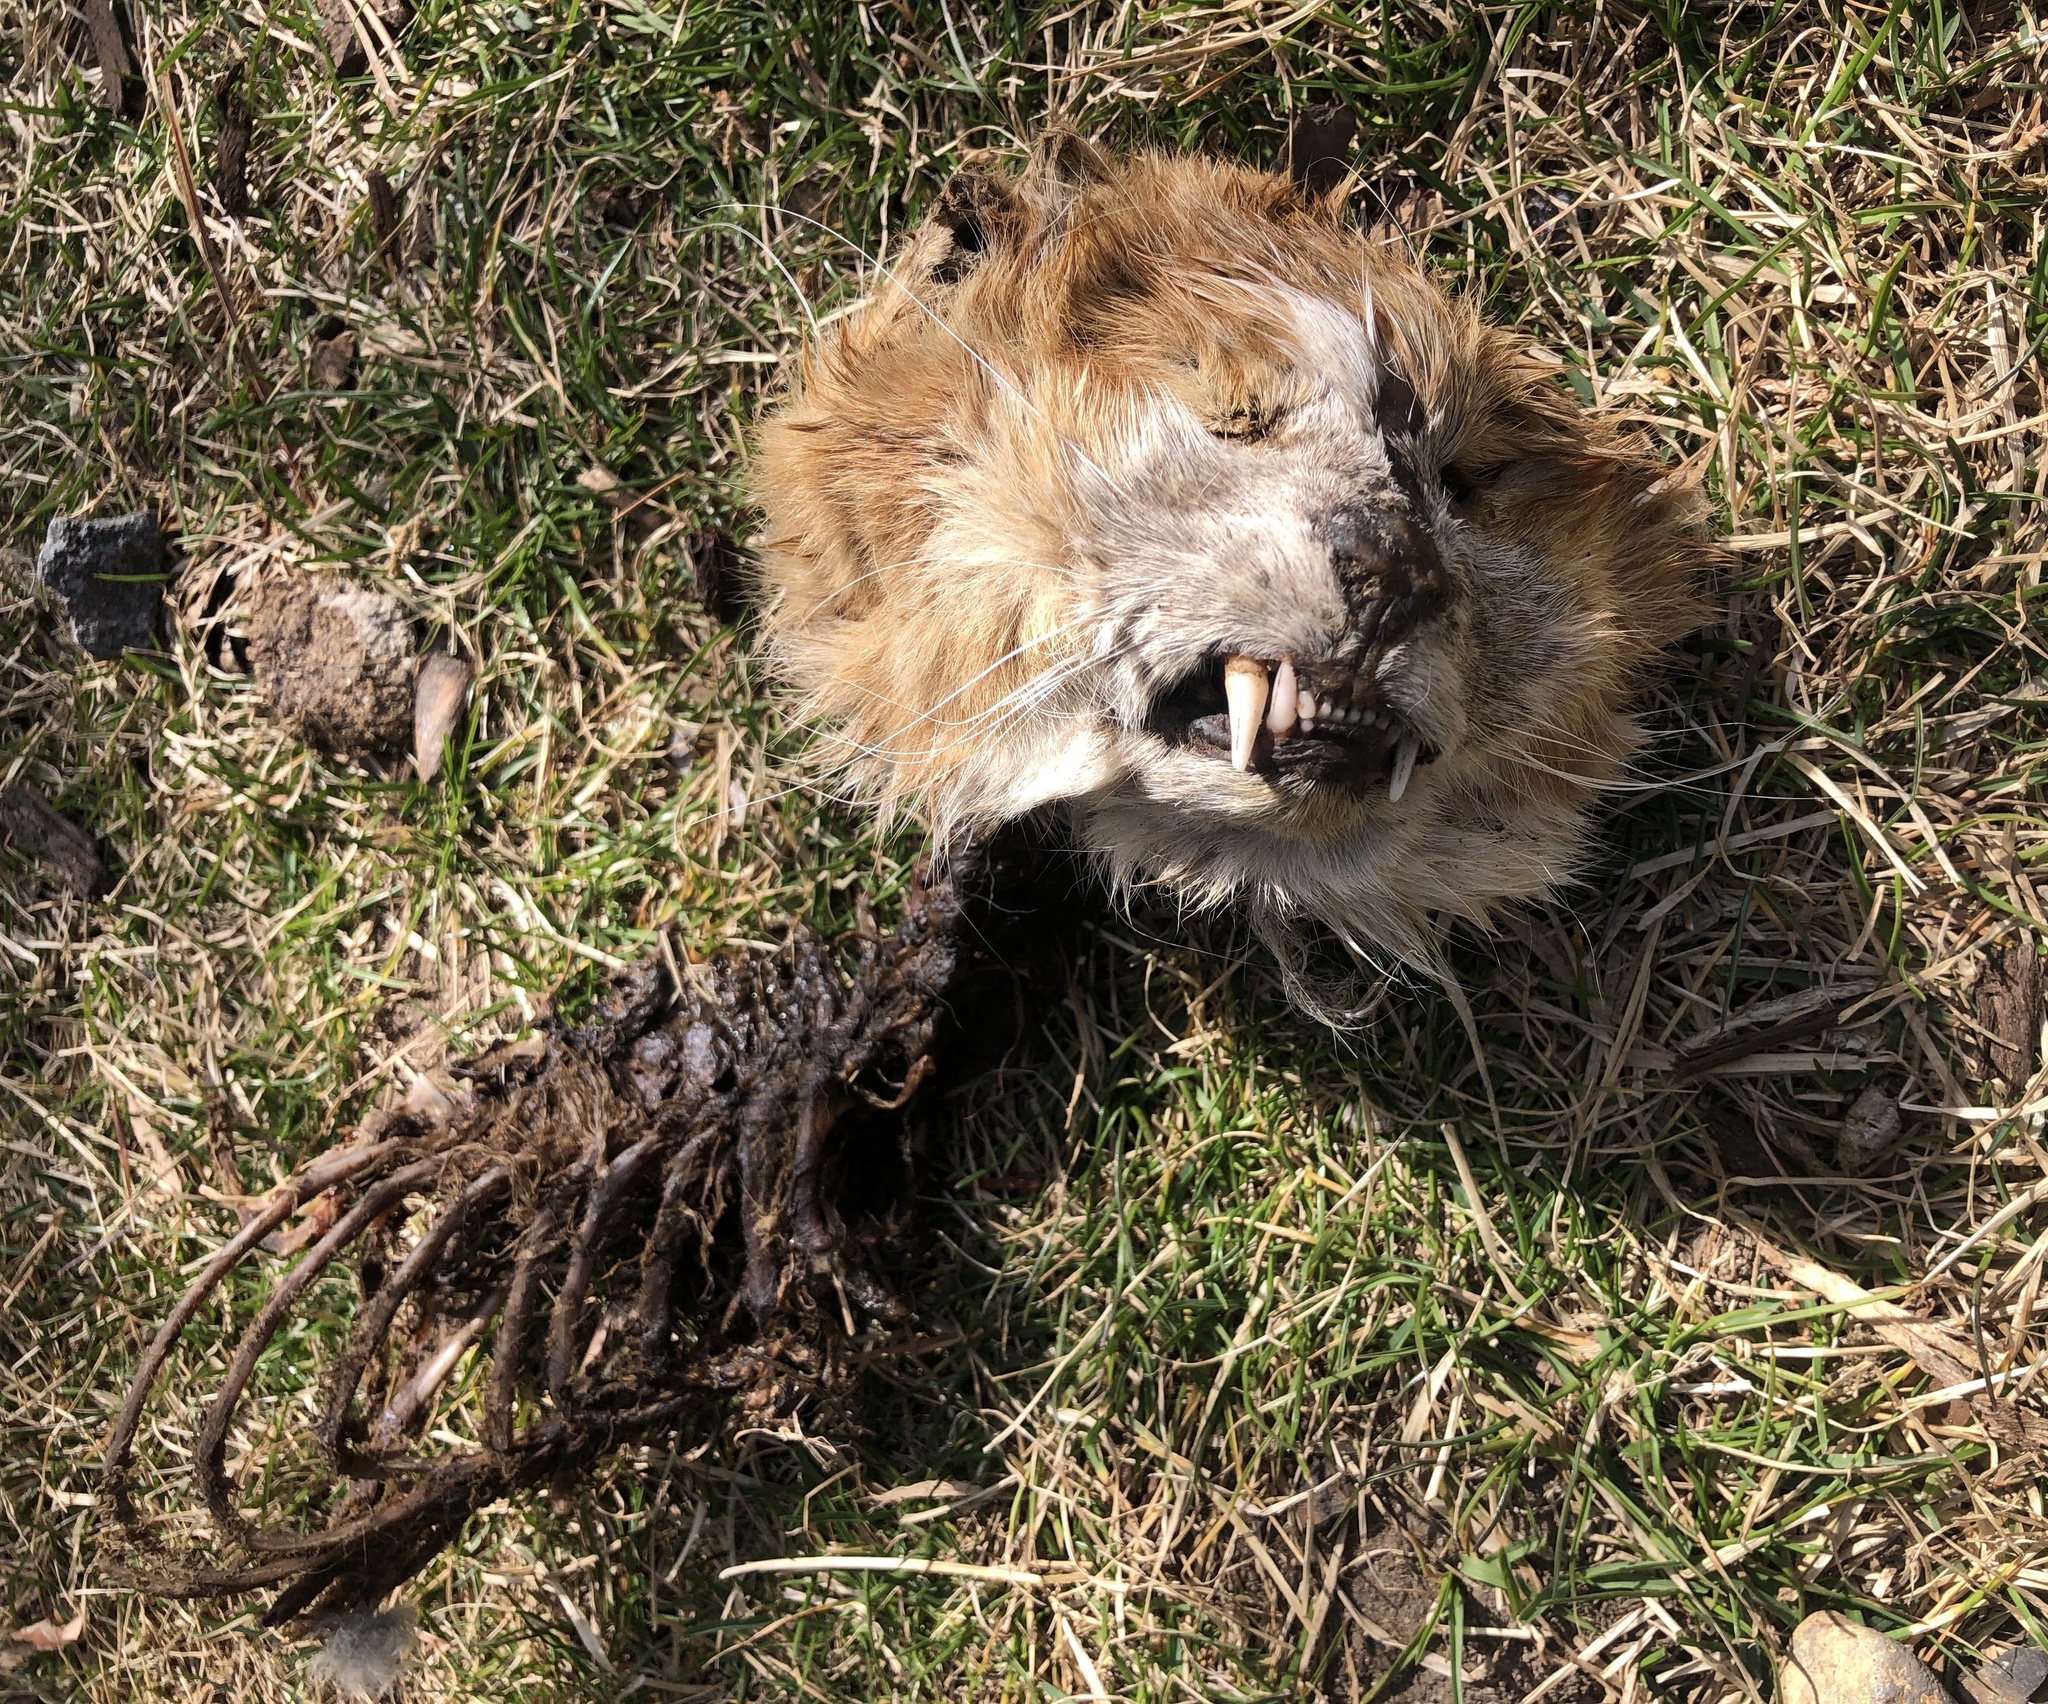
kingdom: Animalia
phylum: Chordata
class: Mammalia
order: Carnivora
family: Felidae
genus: Felis
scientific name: Felis catus
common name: Domestic cat
